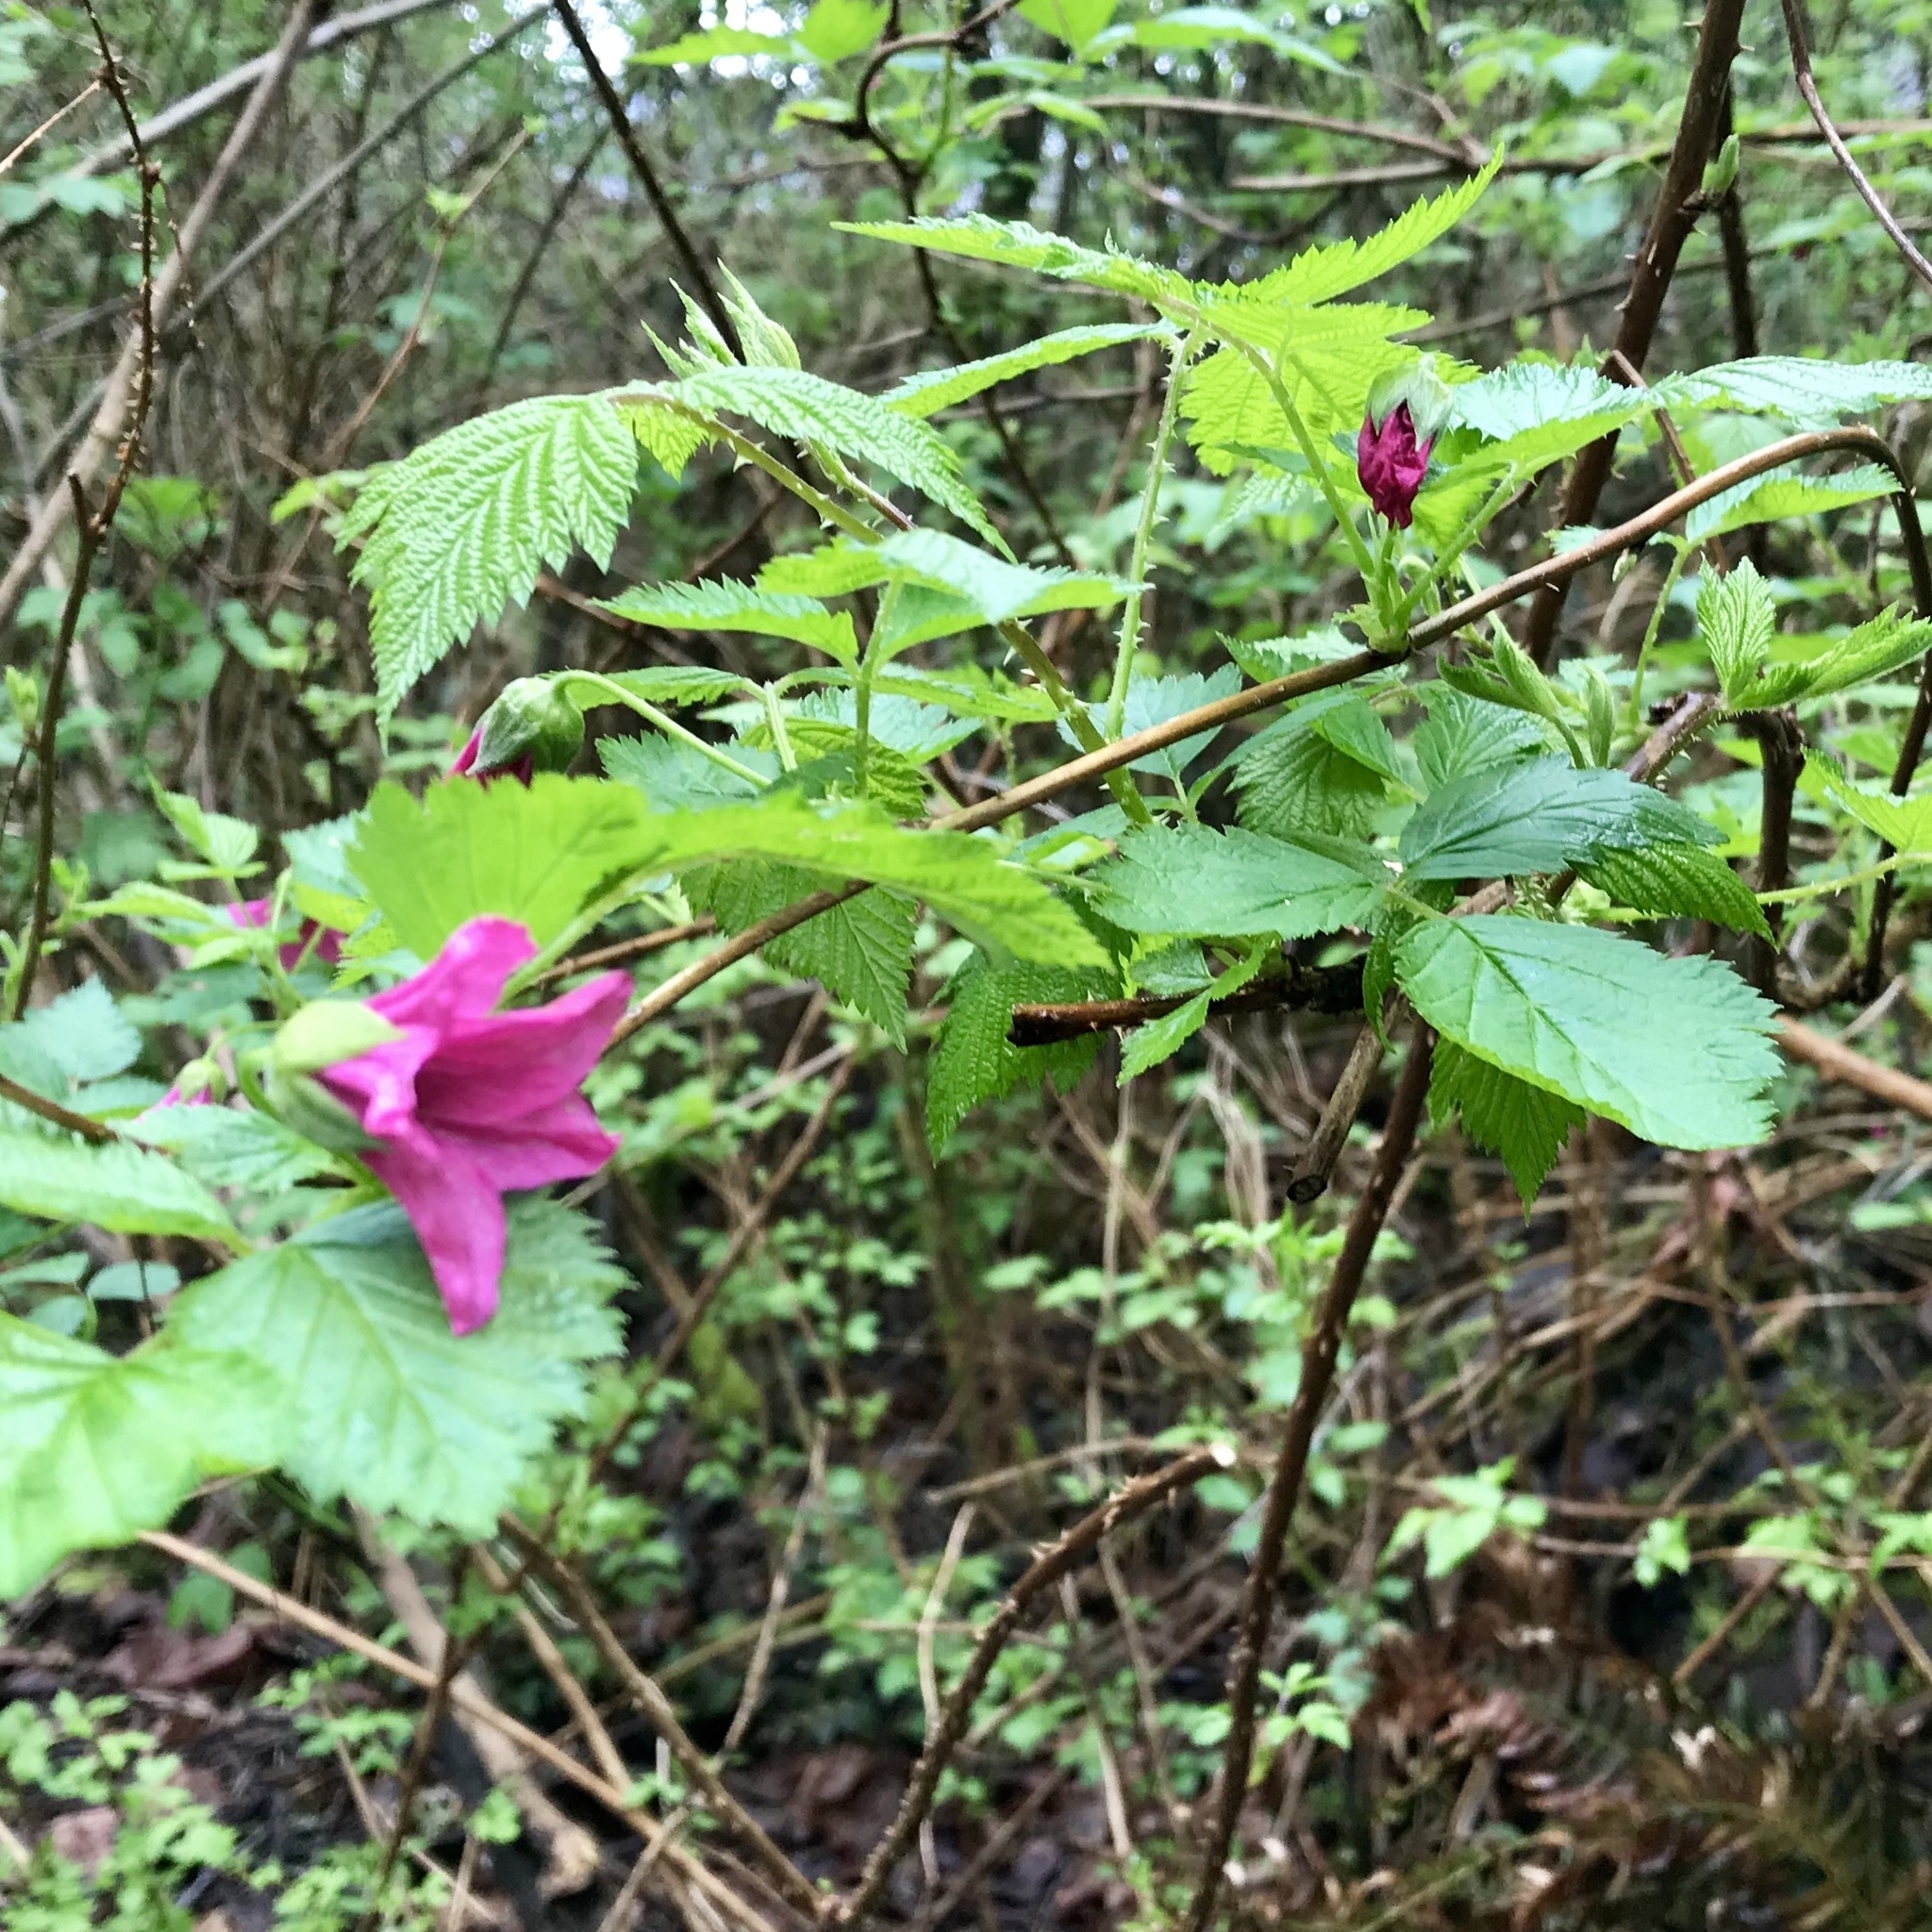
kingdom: Plantae
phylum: Tracheophyta
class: Magnoliopsida
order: Rosales
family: Rosaceae
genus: Rubus
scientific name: Rubus spectabilis
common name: Salmonberry
